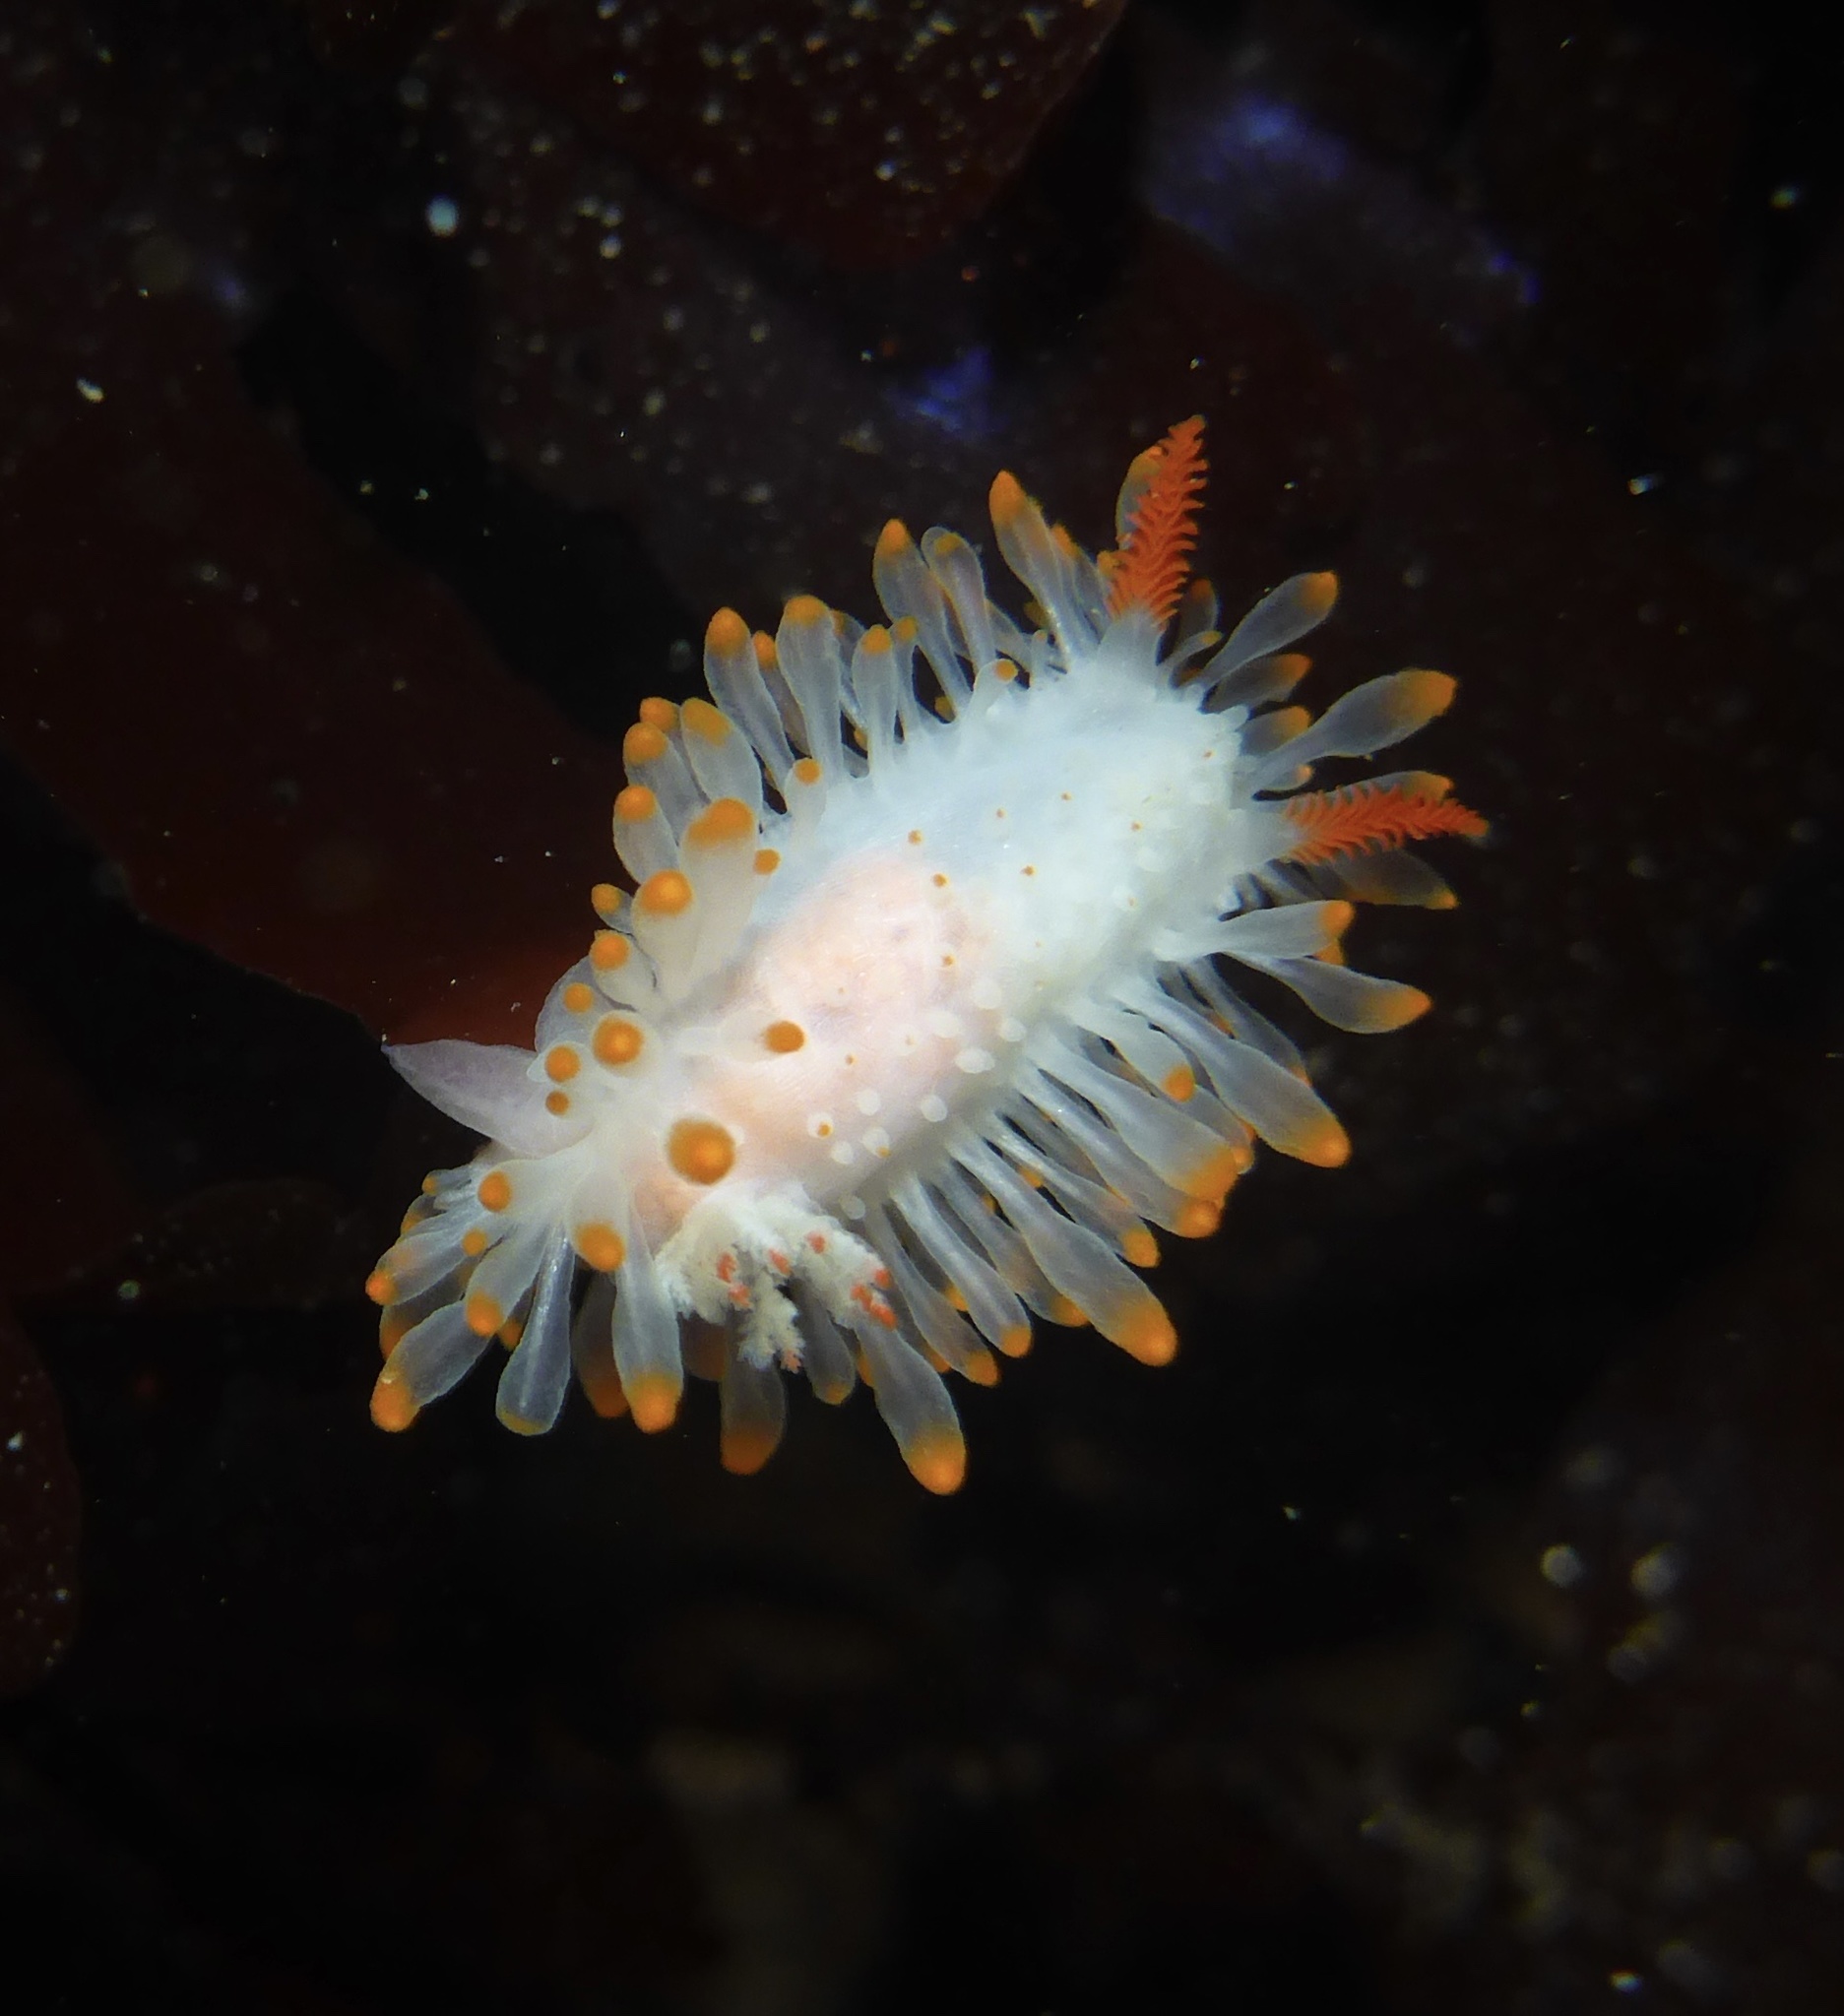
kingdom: Animalia
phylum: Mollusca
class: Gastropoda
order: Nudibranchia
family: Polyceridae
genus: Limacia
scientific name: Limacia cockerelli
